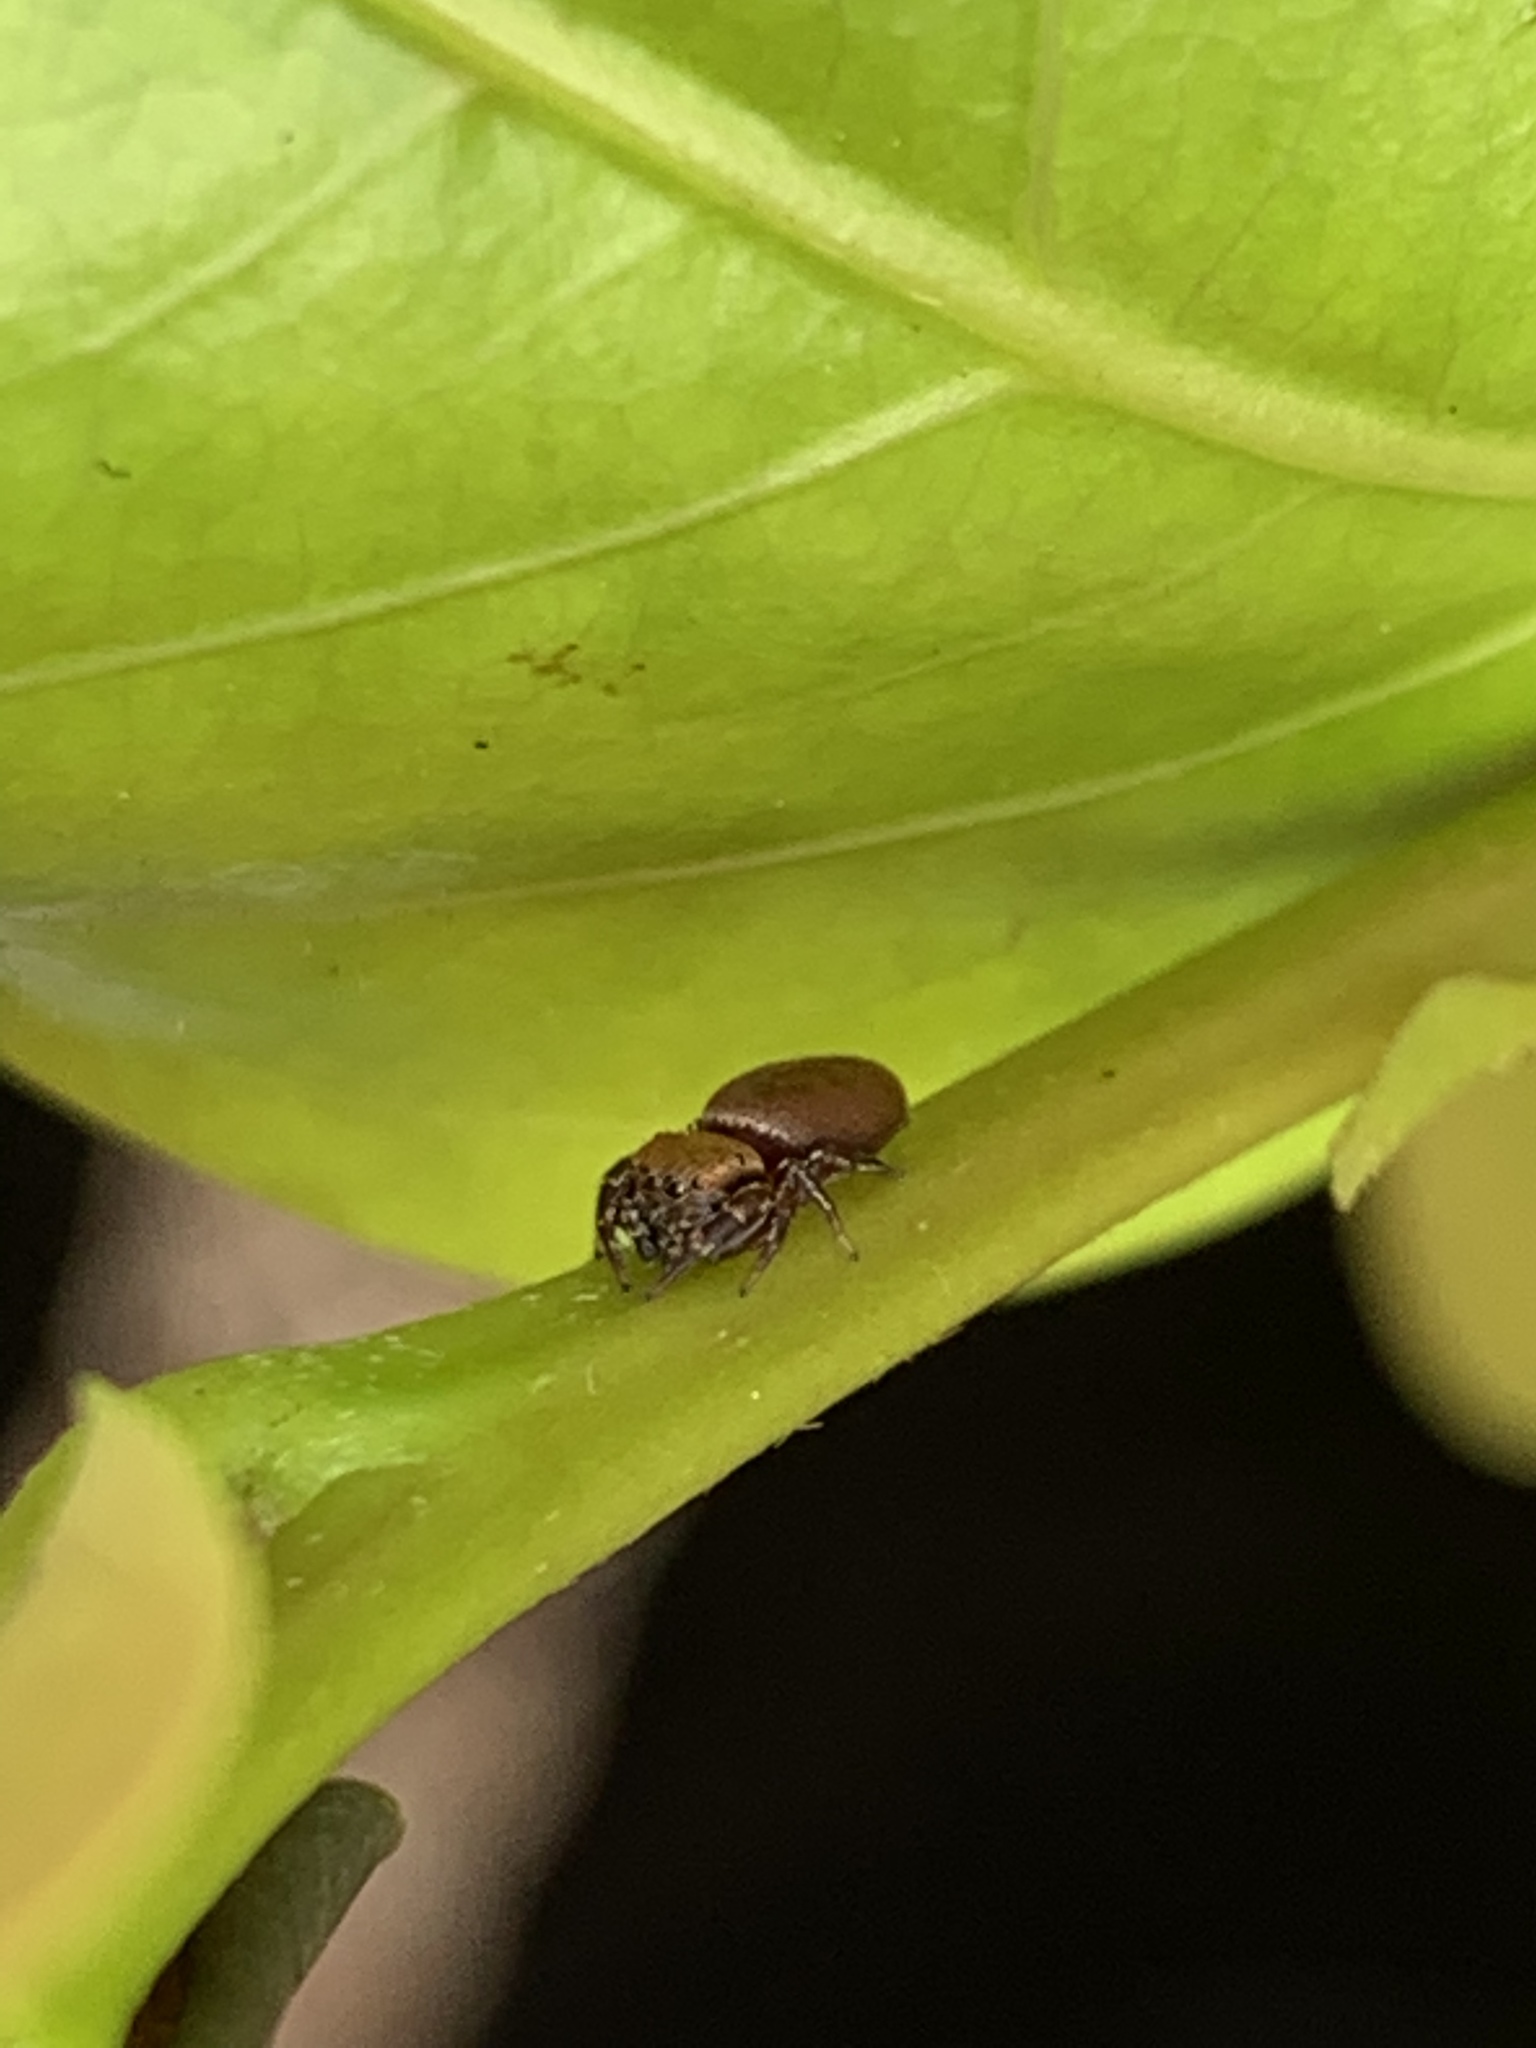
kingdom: Animalia
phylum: Arthropoda
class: Arachnida
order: Araneae
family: Salticidae
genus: Beata
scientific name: Beata wickhami
